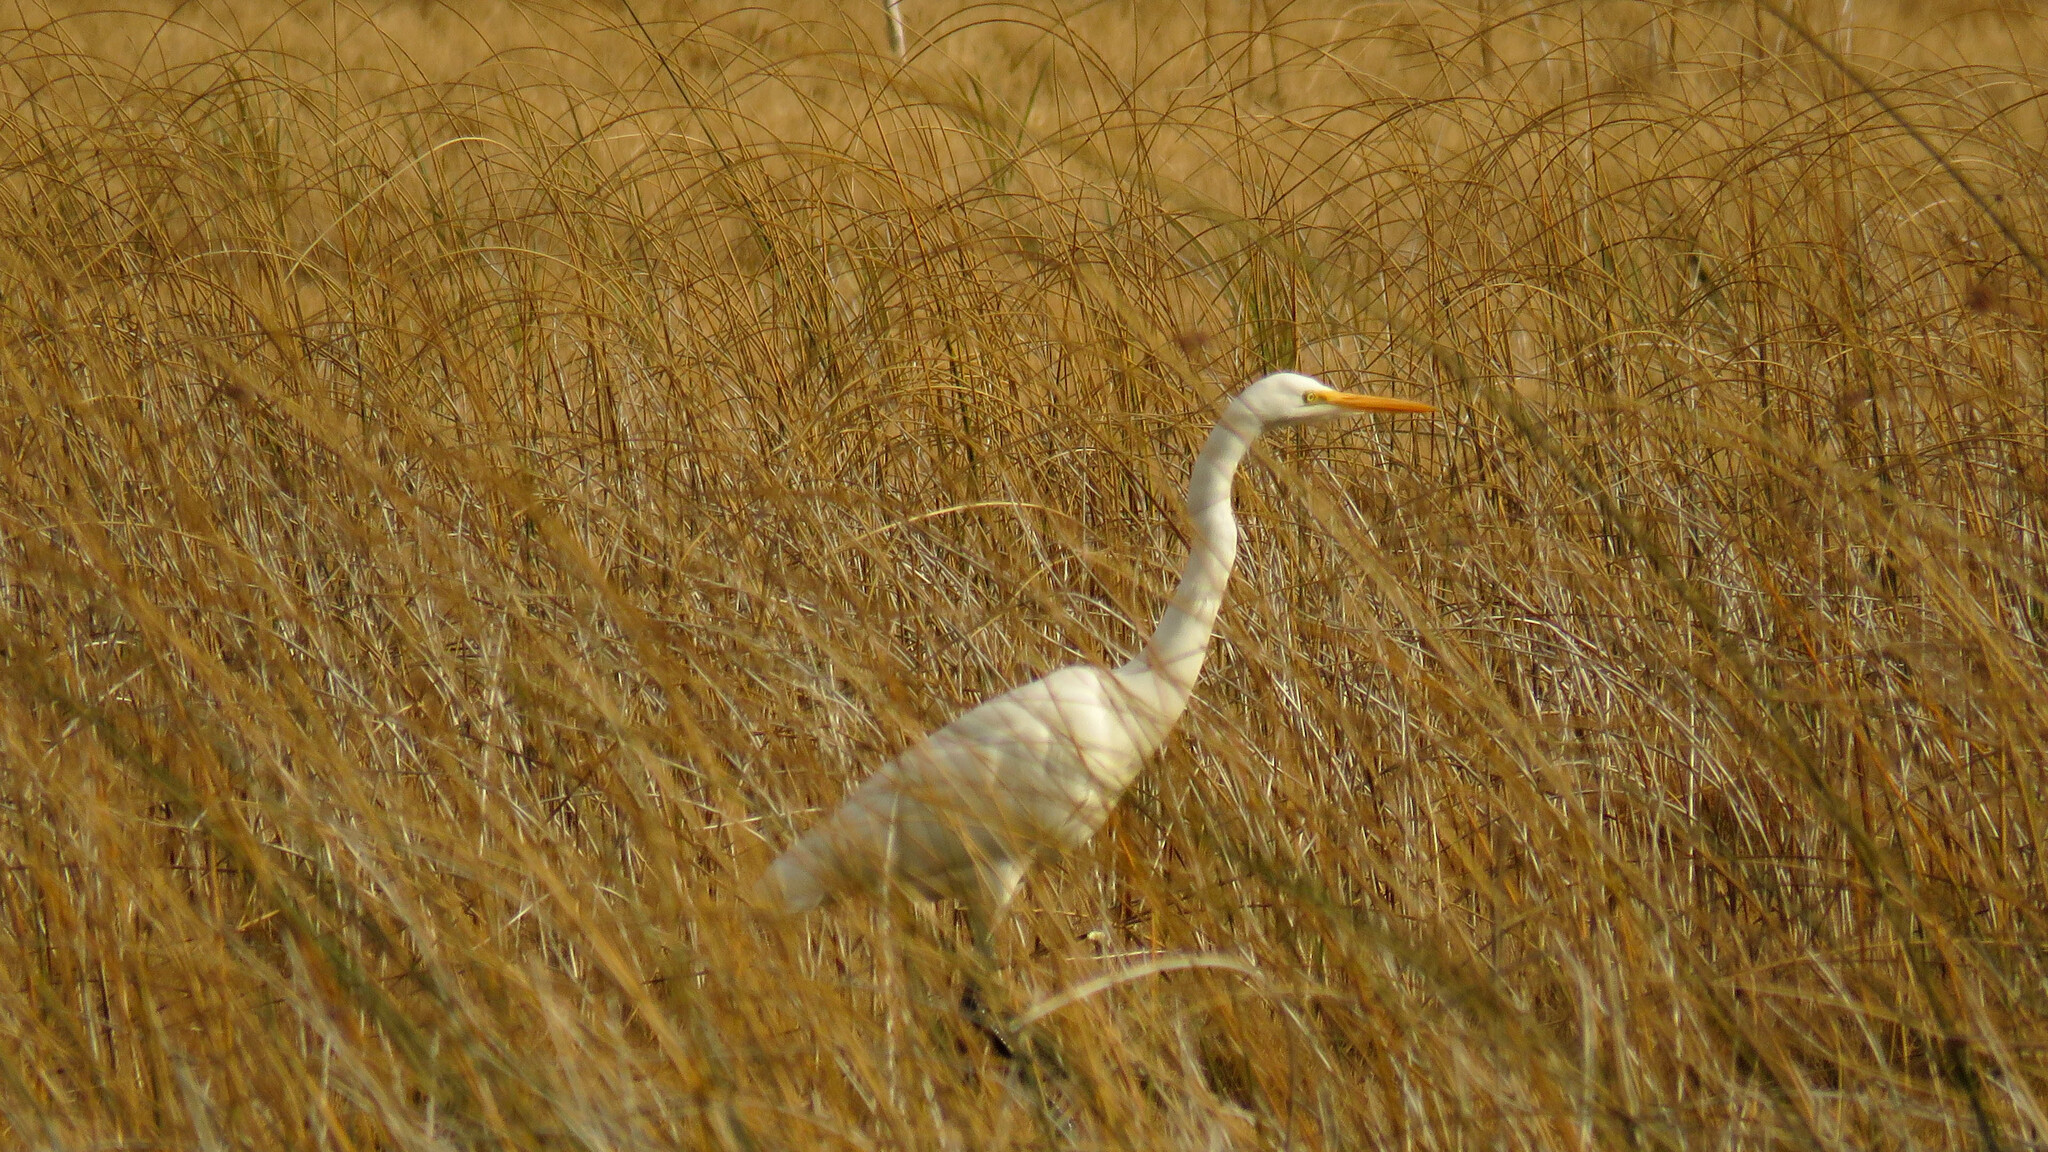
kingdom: Animalia
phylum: Chordata
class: Aves
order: Pelecaniformes
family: Ardeidae
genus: Ardea
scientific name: Ardea alba
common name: Great egret
